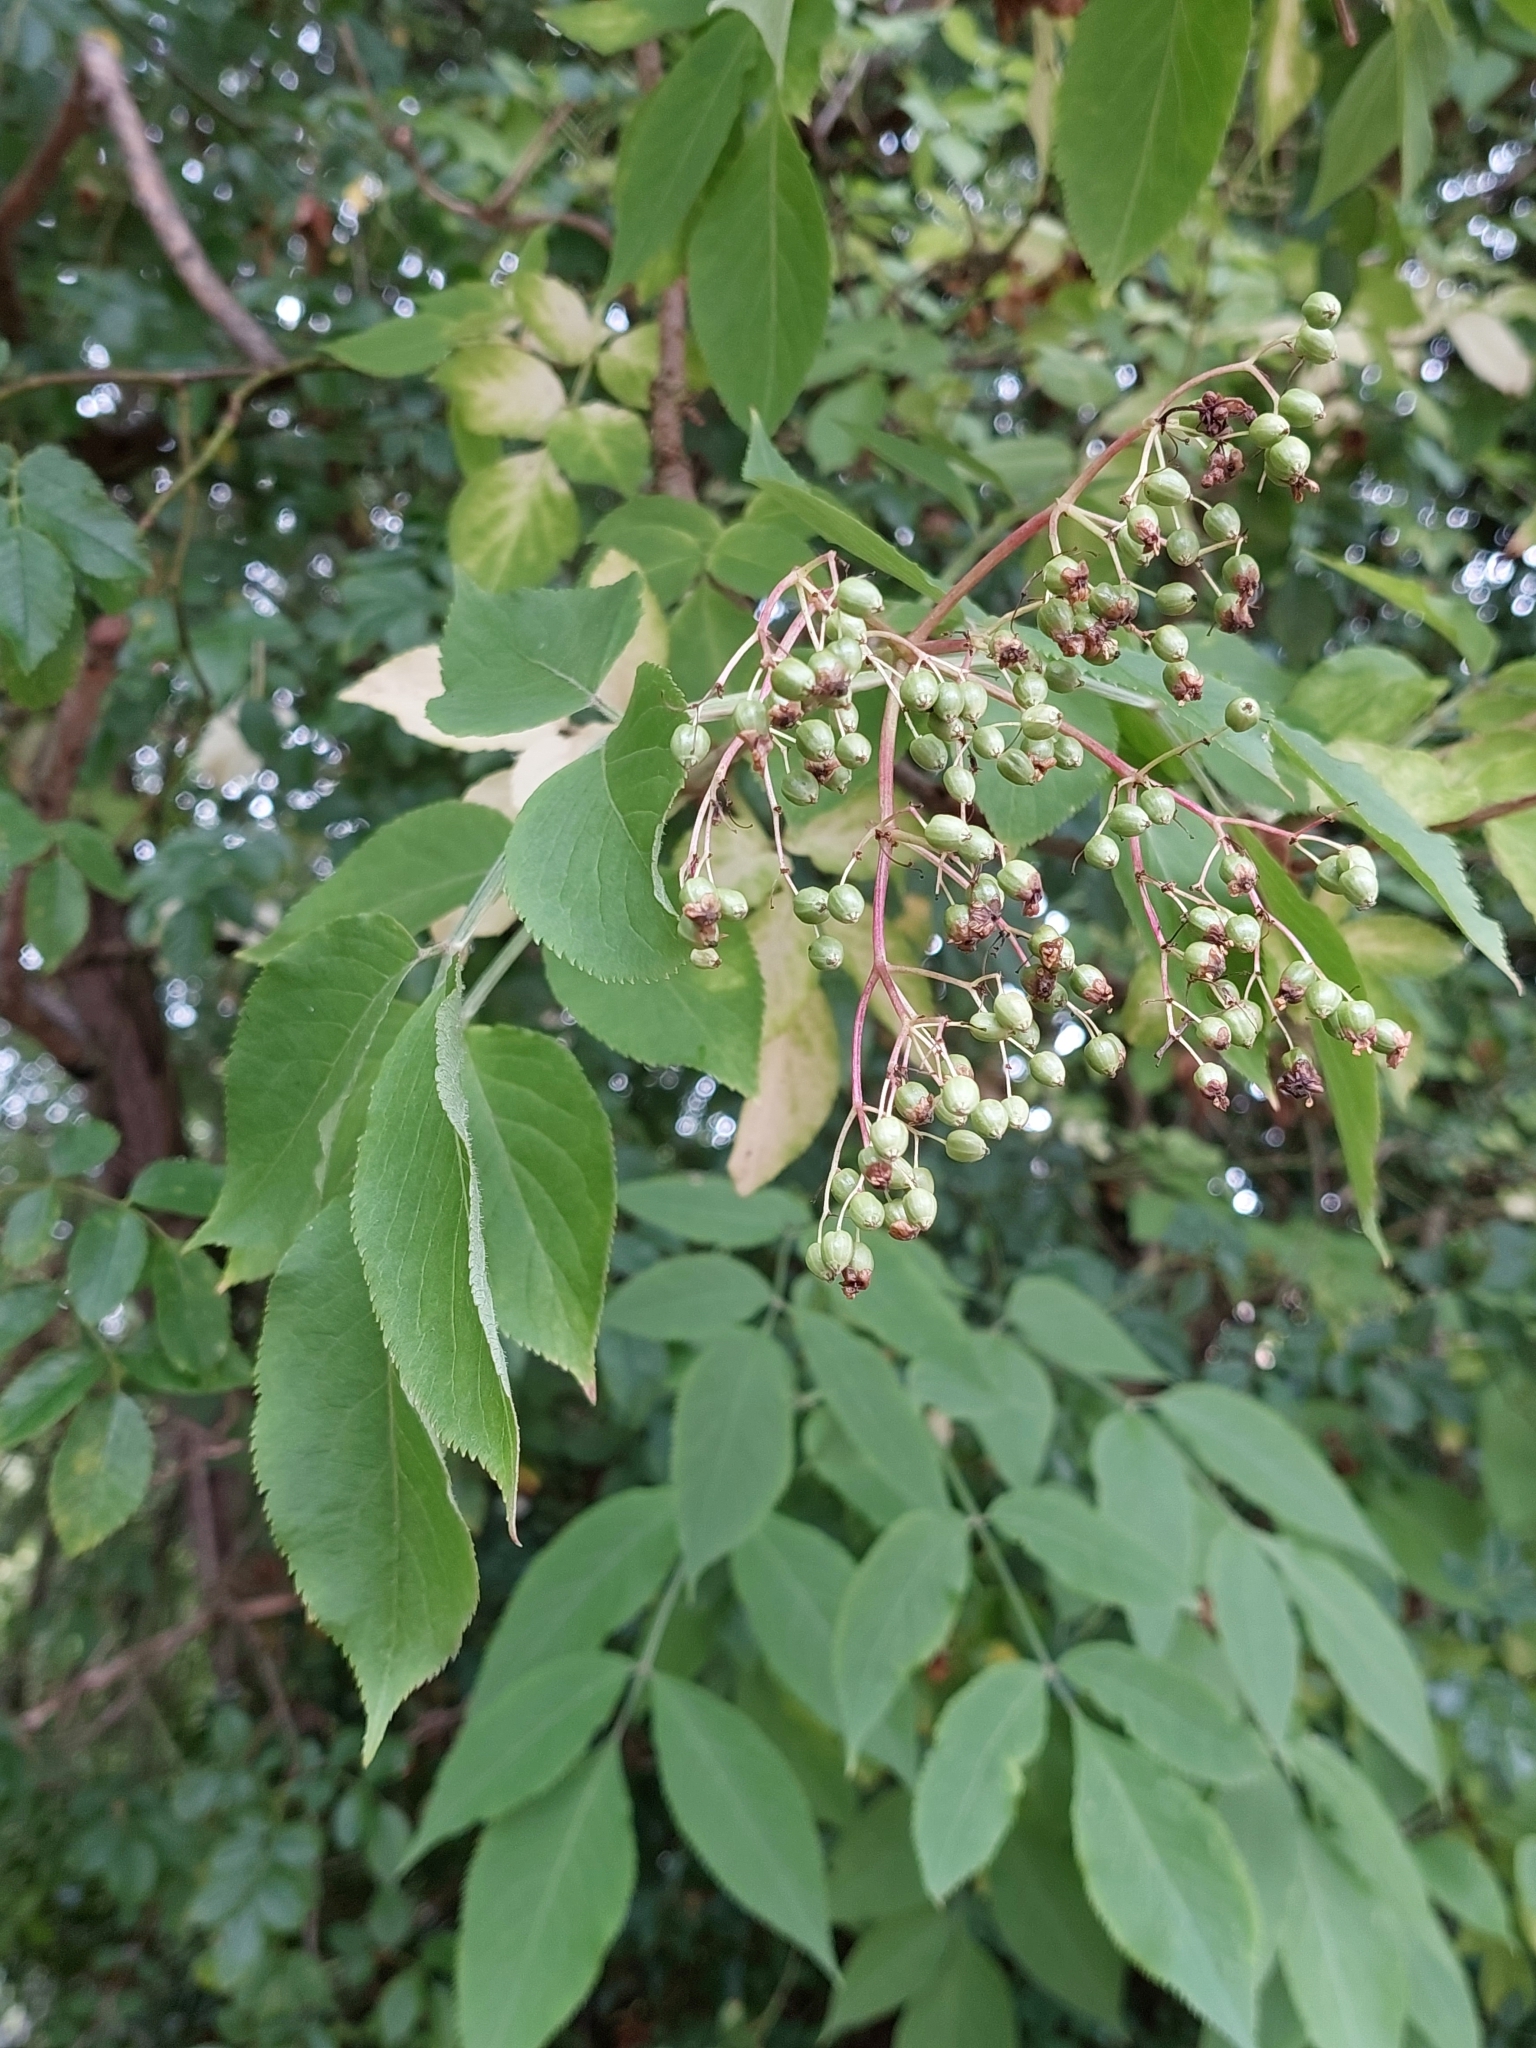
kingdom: Plantae
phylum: Tracheophyta
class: Magnoliopsida
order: Dipsacales
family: Viburnaceae
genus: Sambucus
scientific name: Sambucus nigra
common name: Elder
